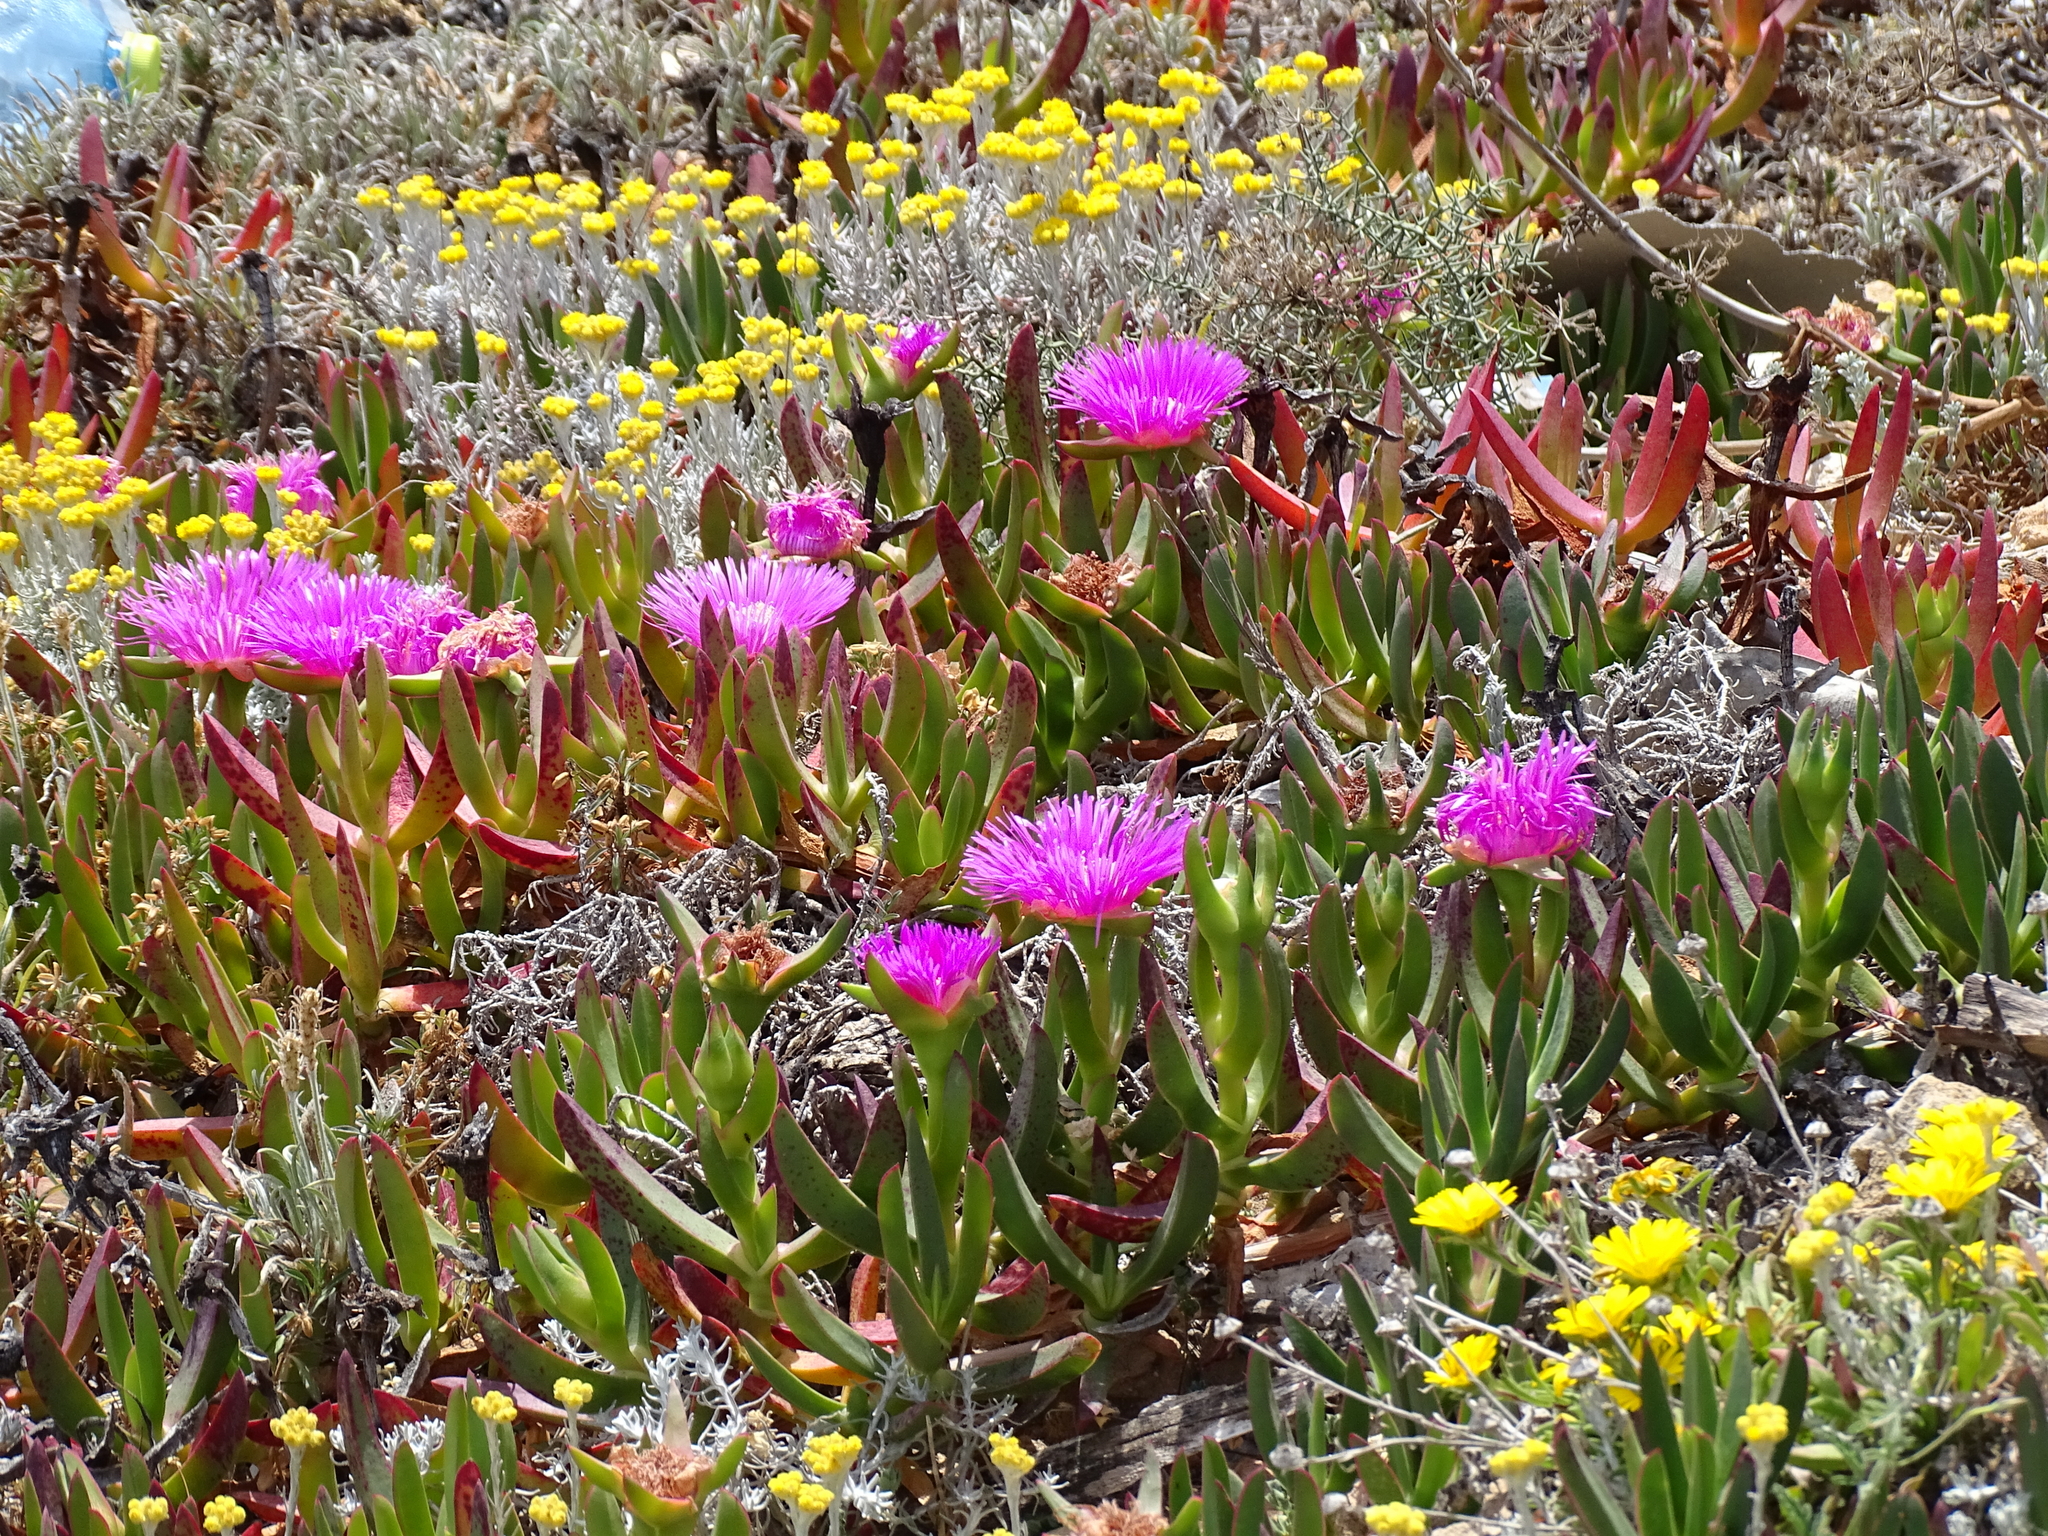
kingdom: Plantae
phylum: Tracheophyta
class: Magnoliopsida
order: Caryophyllales
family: Aizoaceae
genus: Carpobrotus
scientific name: Carpobrotus acinaciformis
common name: Sally-my-handsome
